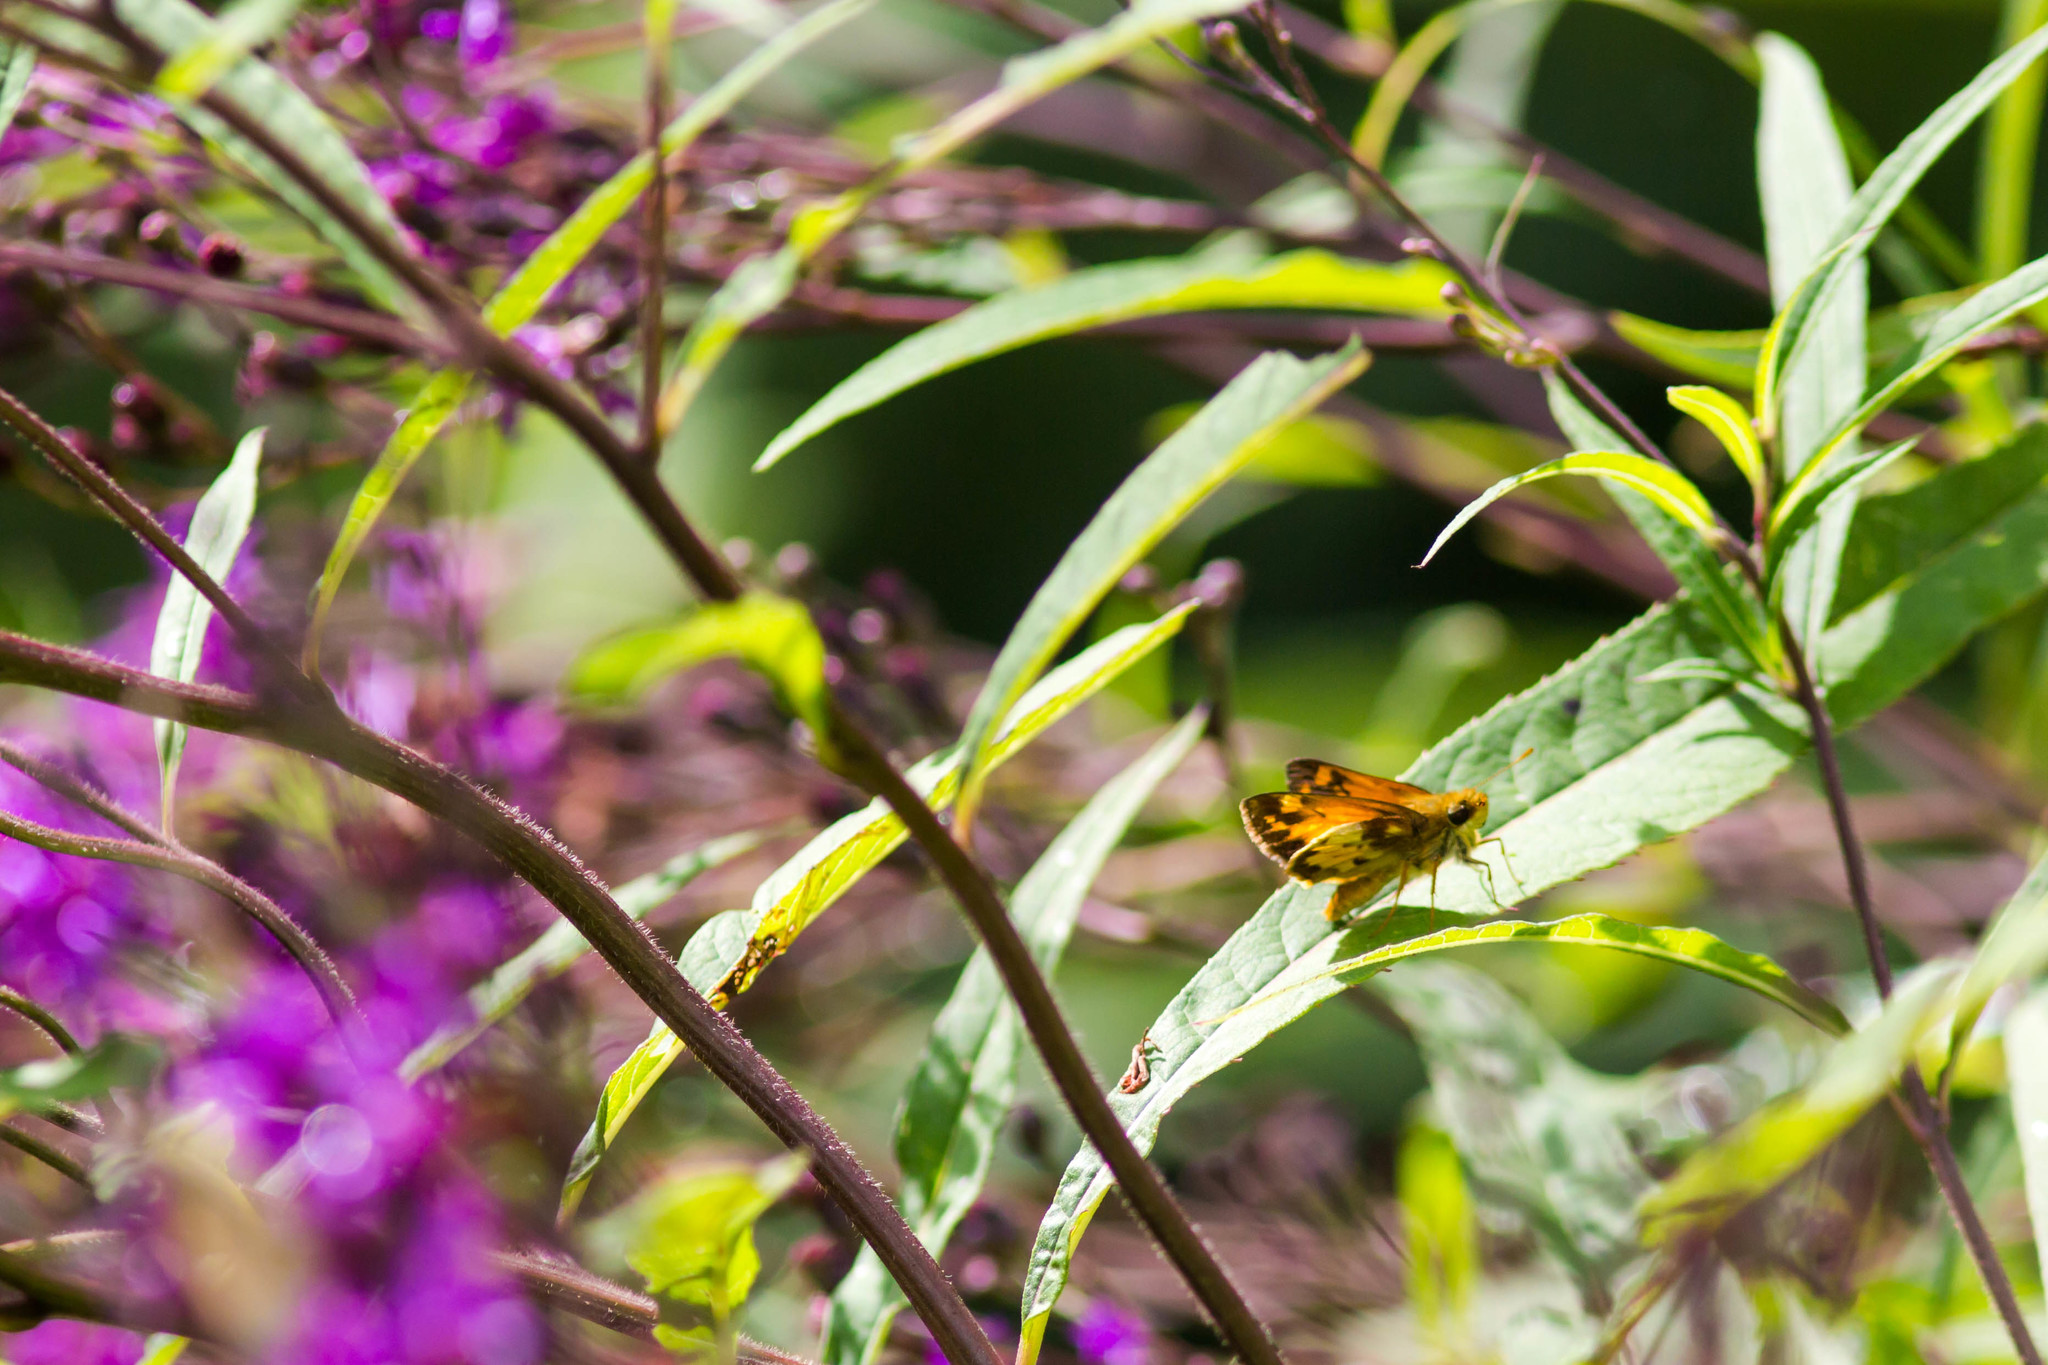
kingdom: Animalia
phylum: Arthropoda
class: Insecta
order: Lepidoptera
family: Hesperiidae
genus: Lon
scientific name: Lon zabulon
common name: Zabulon skipper
